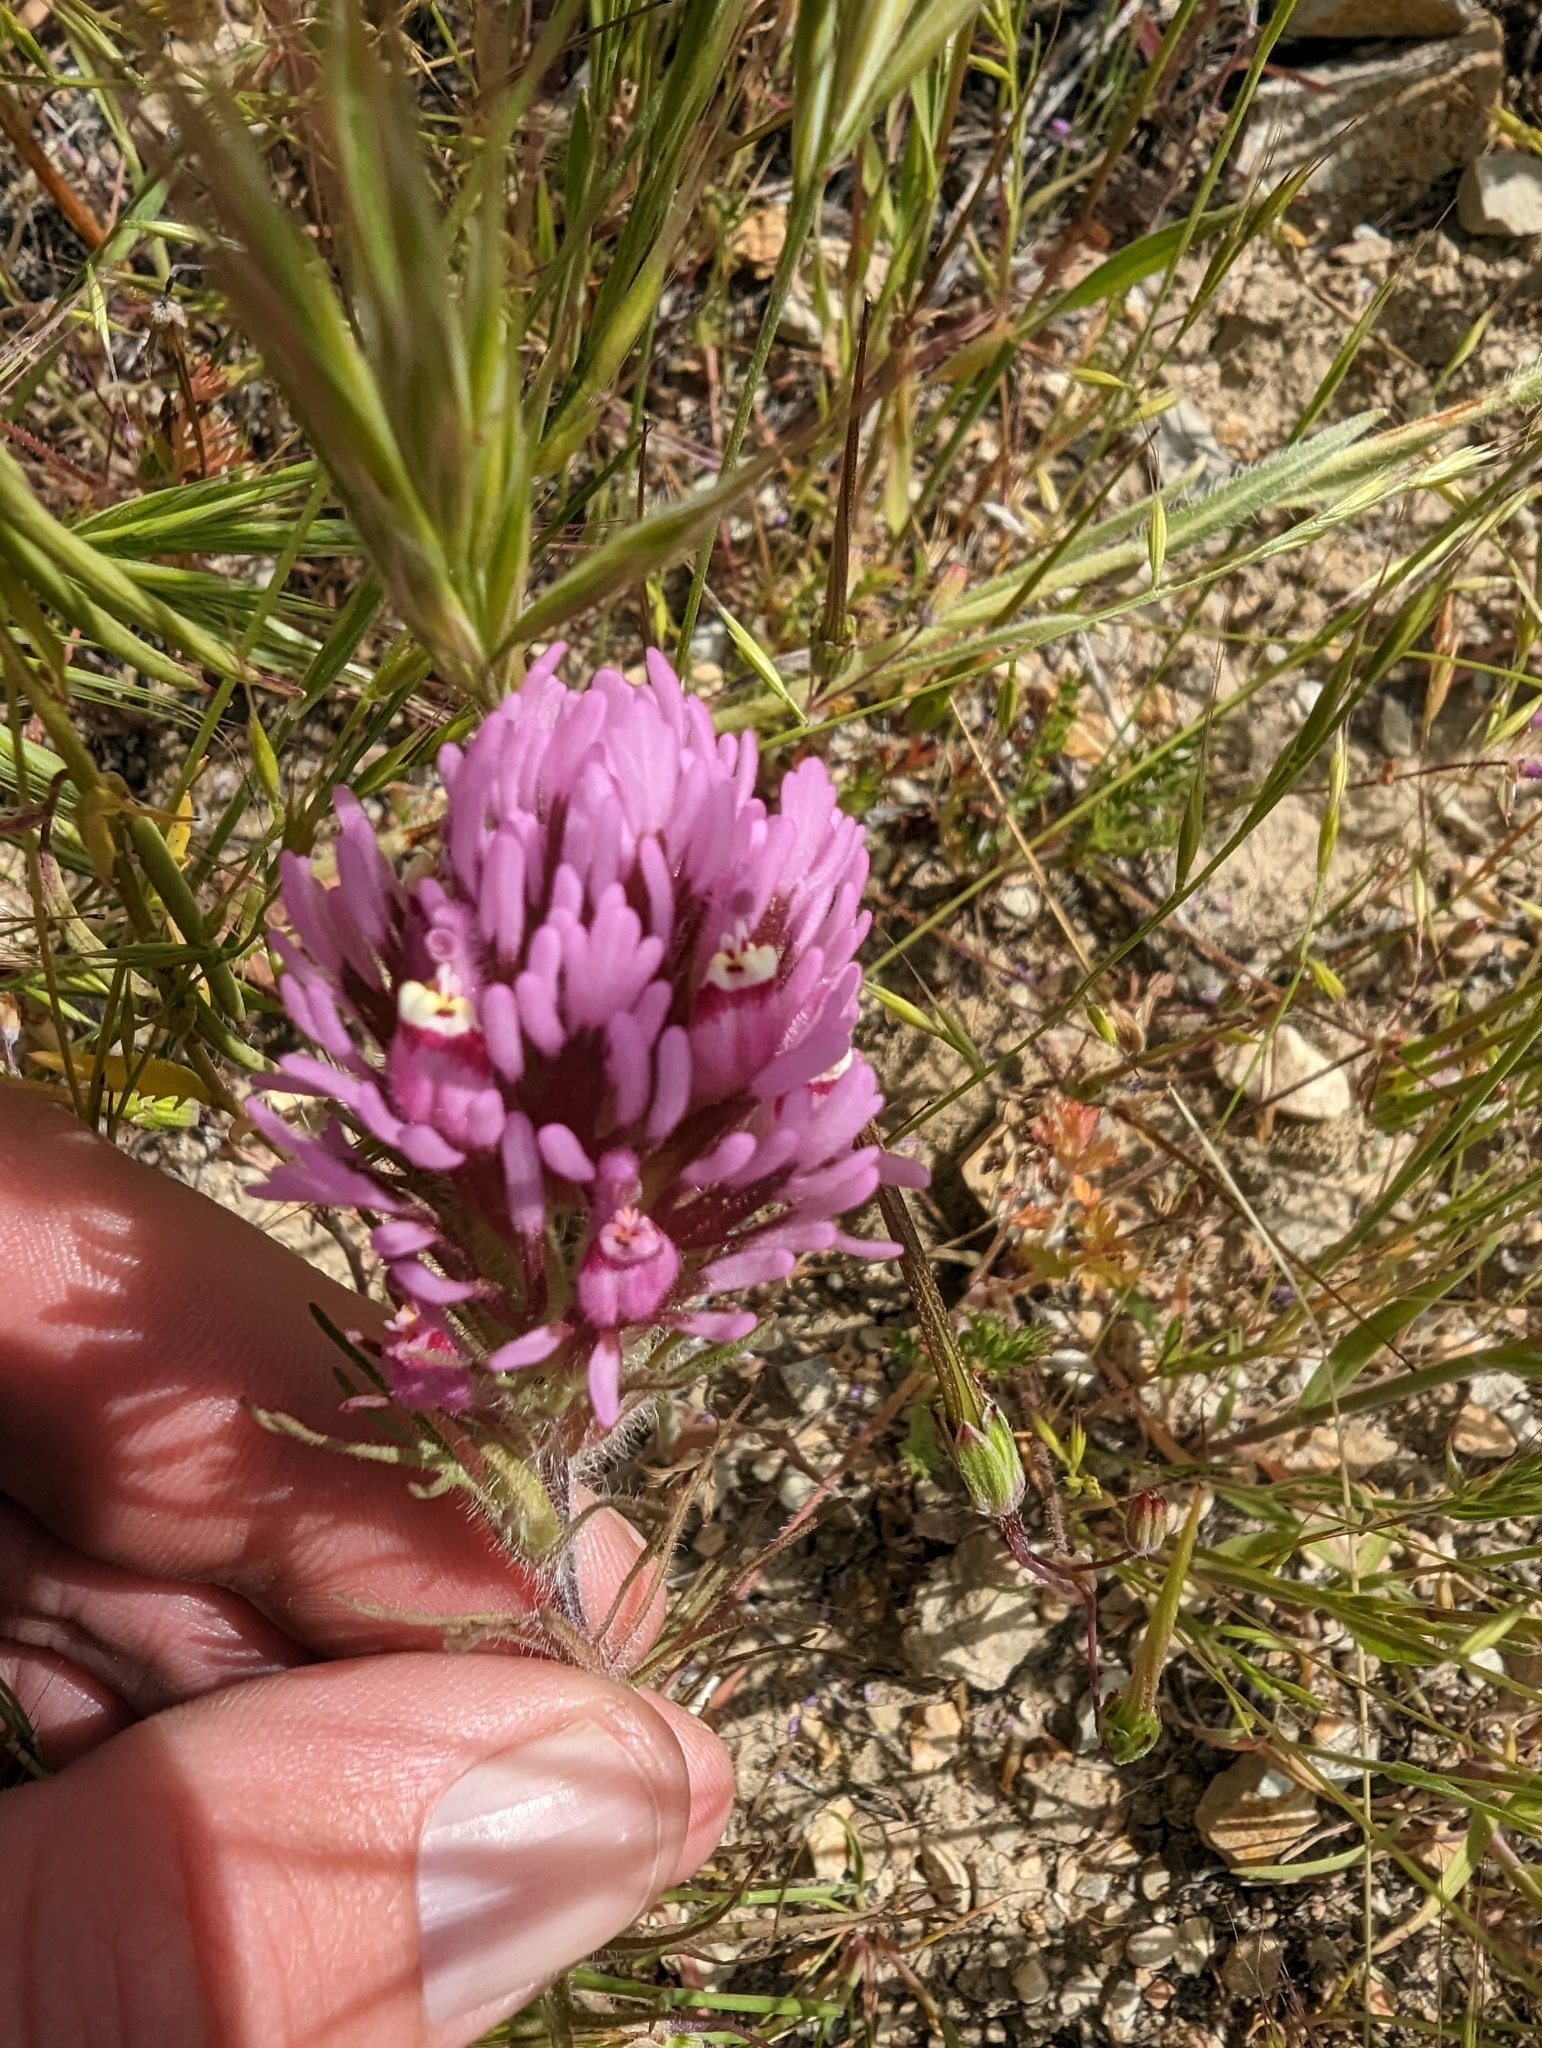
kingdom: Plantae
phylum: Tracheophyta
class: Magnoliopsida
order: Lamiales
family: Orobanchaceae
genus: Castilleja
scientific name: Castilleja exserta
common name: Purple owl-clover
